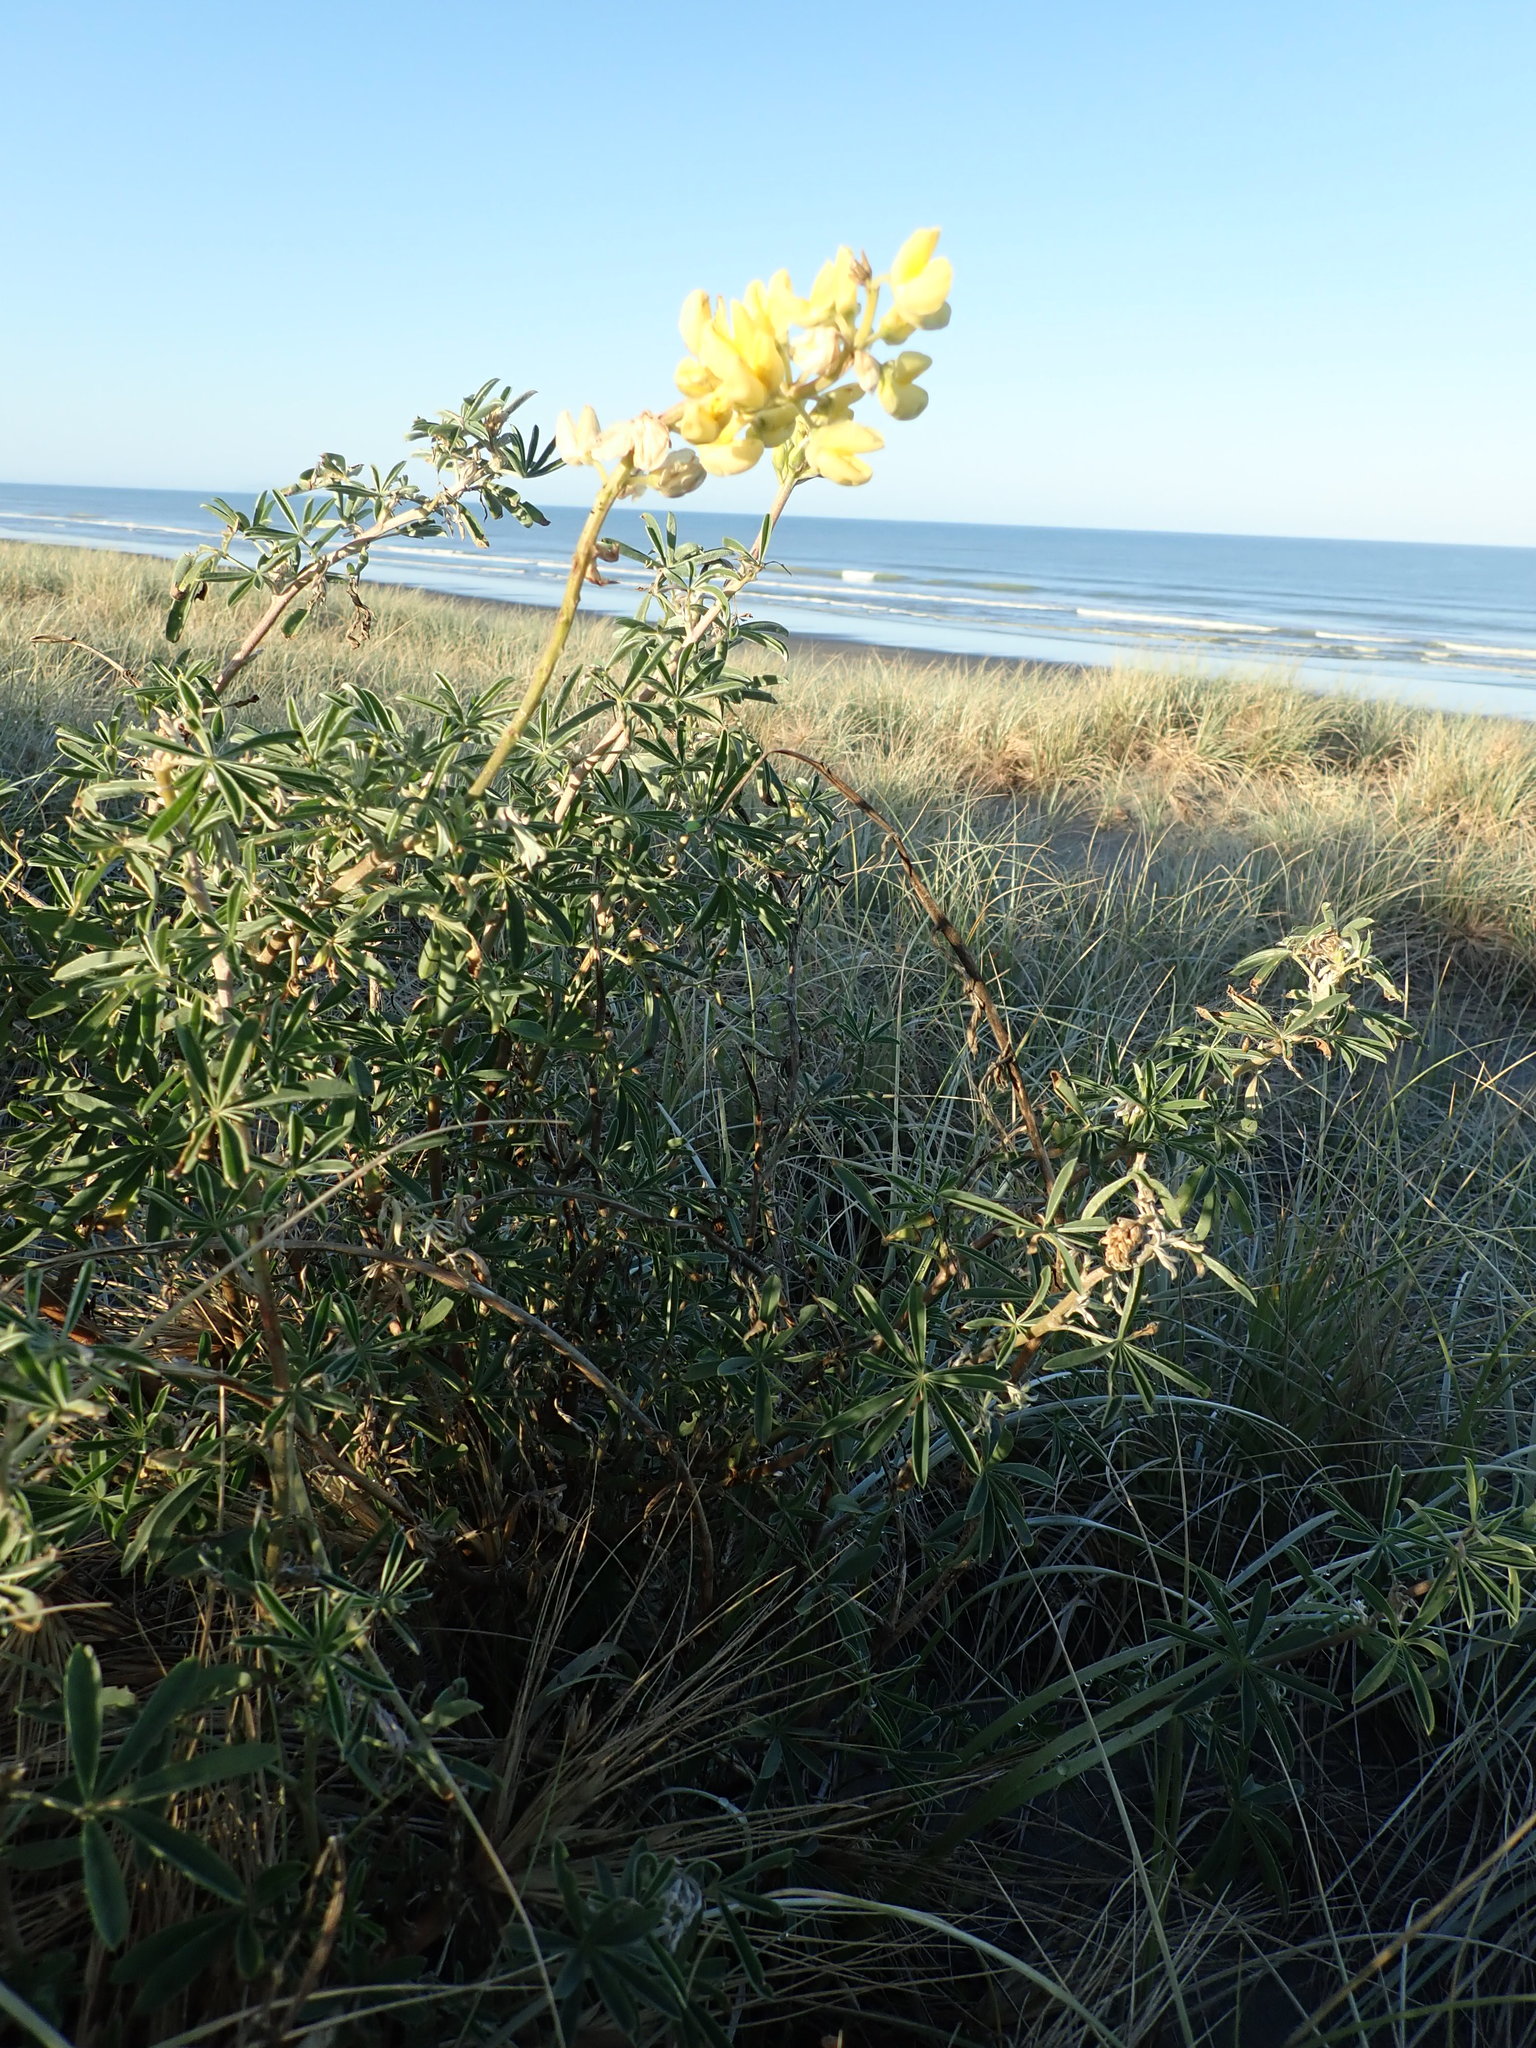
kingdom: Plantae
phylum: Tracheophyta
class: Magnoliopsida
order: Fabales
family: Fabaceae
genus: Lupinus
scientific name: Lupinus arboreus
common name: Yellow bush lupine
